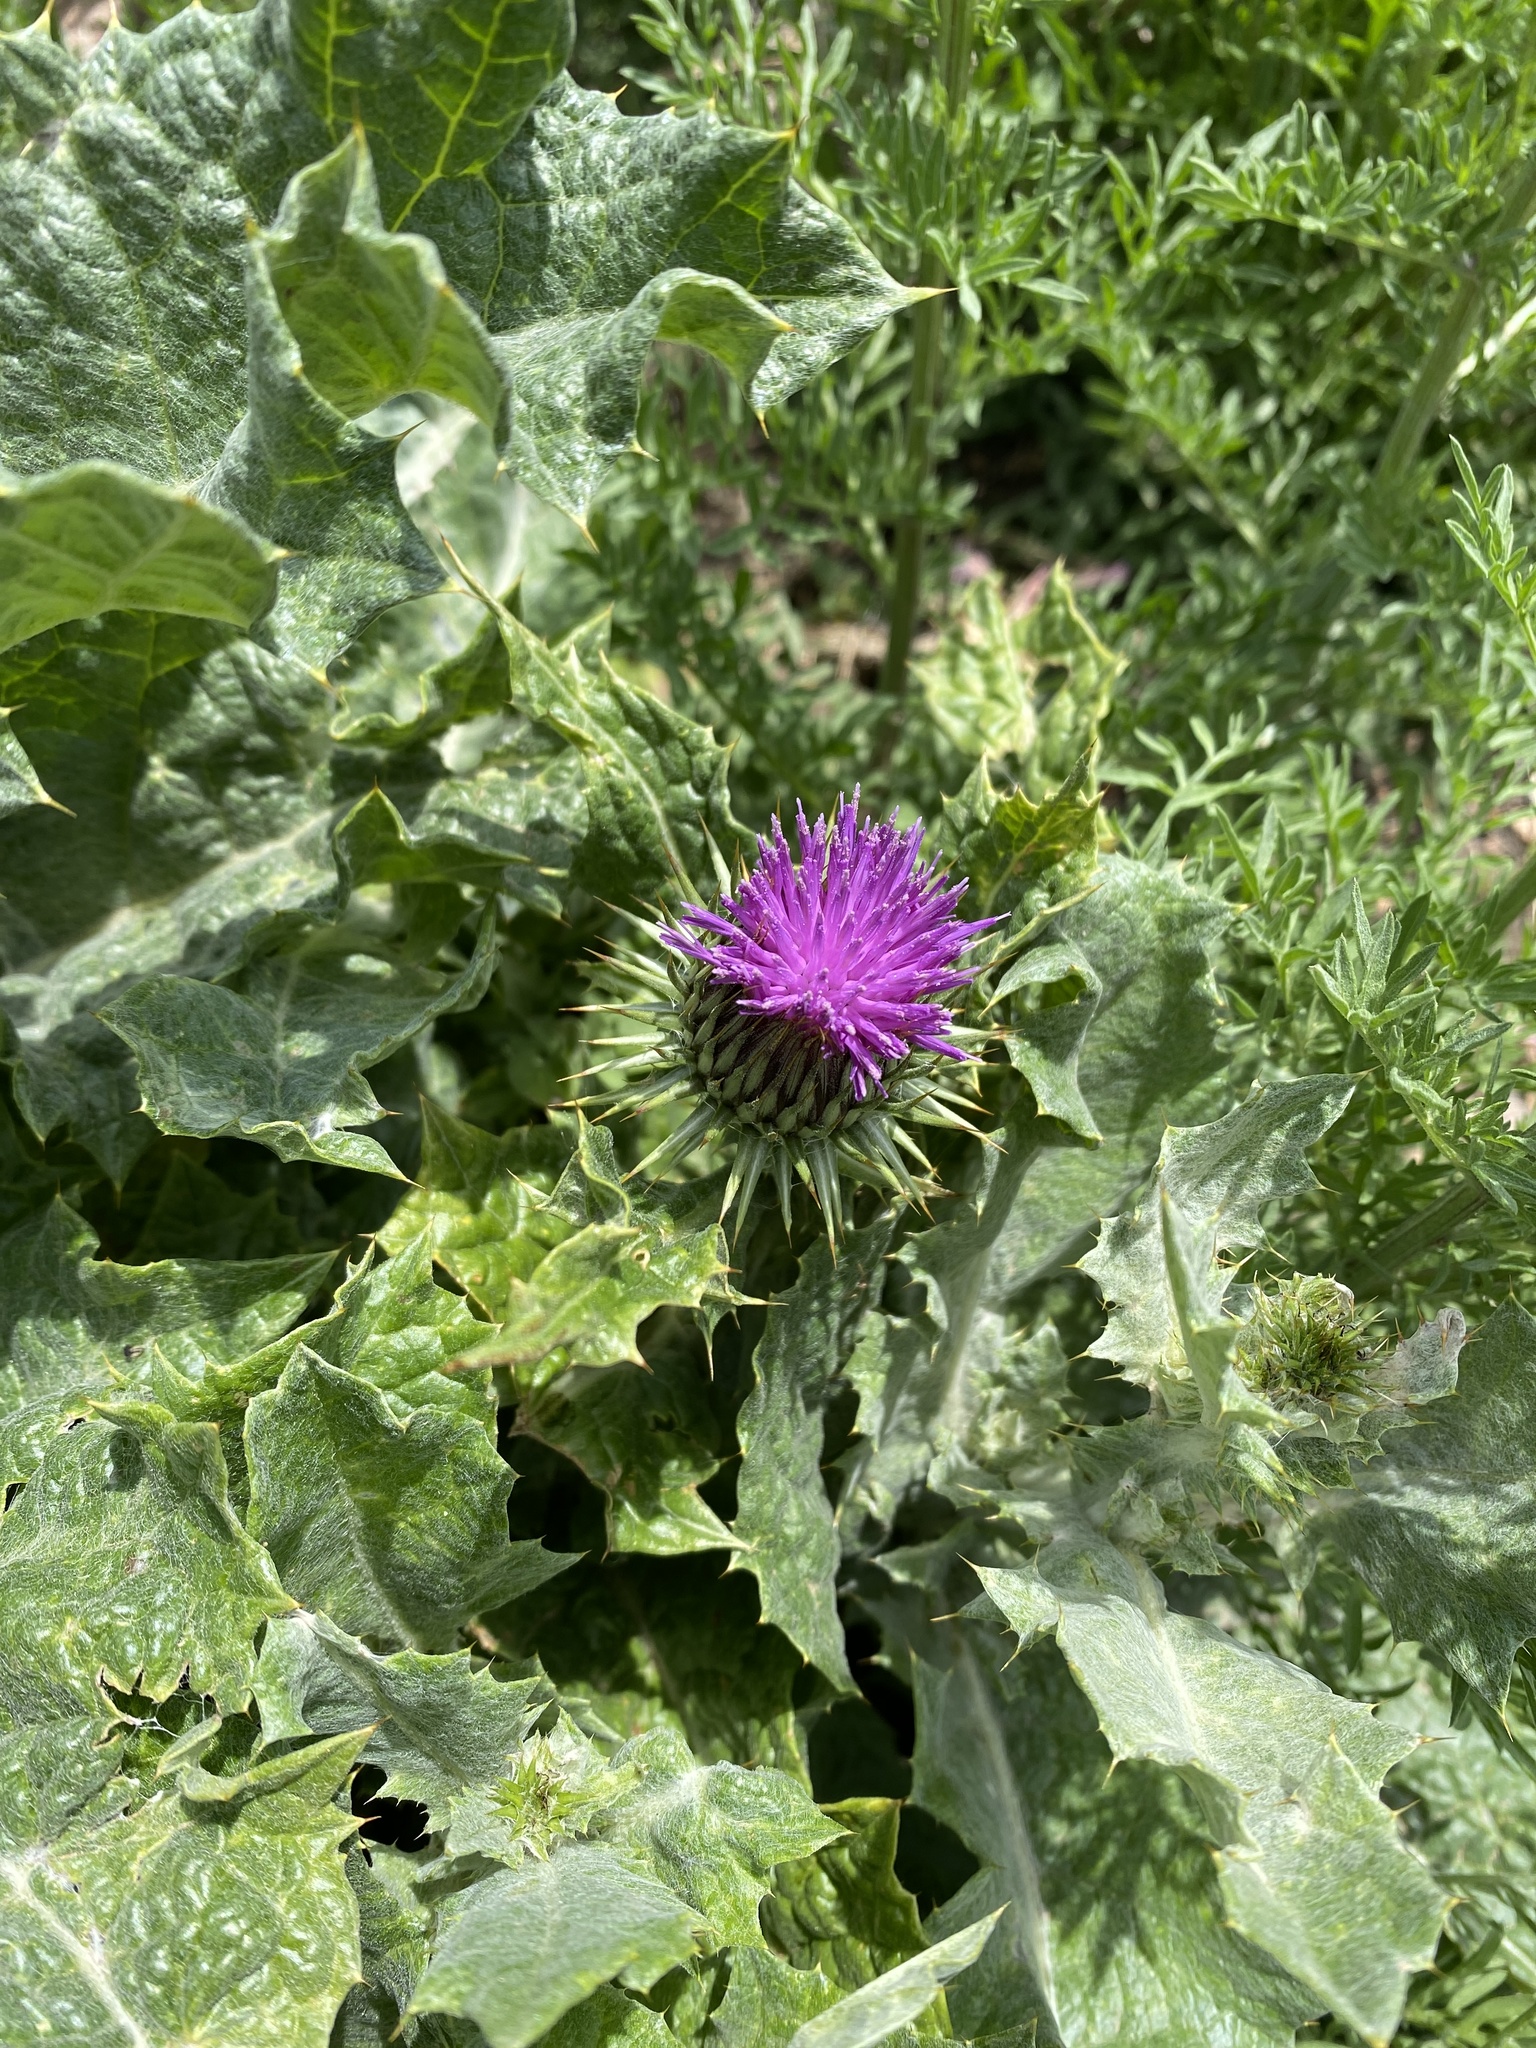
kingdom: Plantae
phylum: Tracheophyta
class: Magnoliopsida
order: Asterales
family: Asteraceae
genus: Onopordum
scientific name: Onopordum acanthium
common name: Scotch thistle
